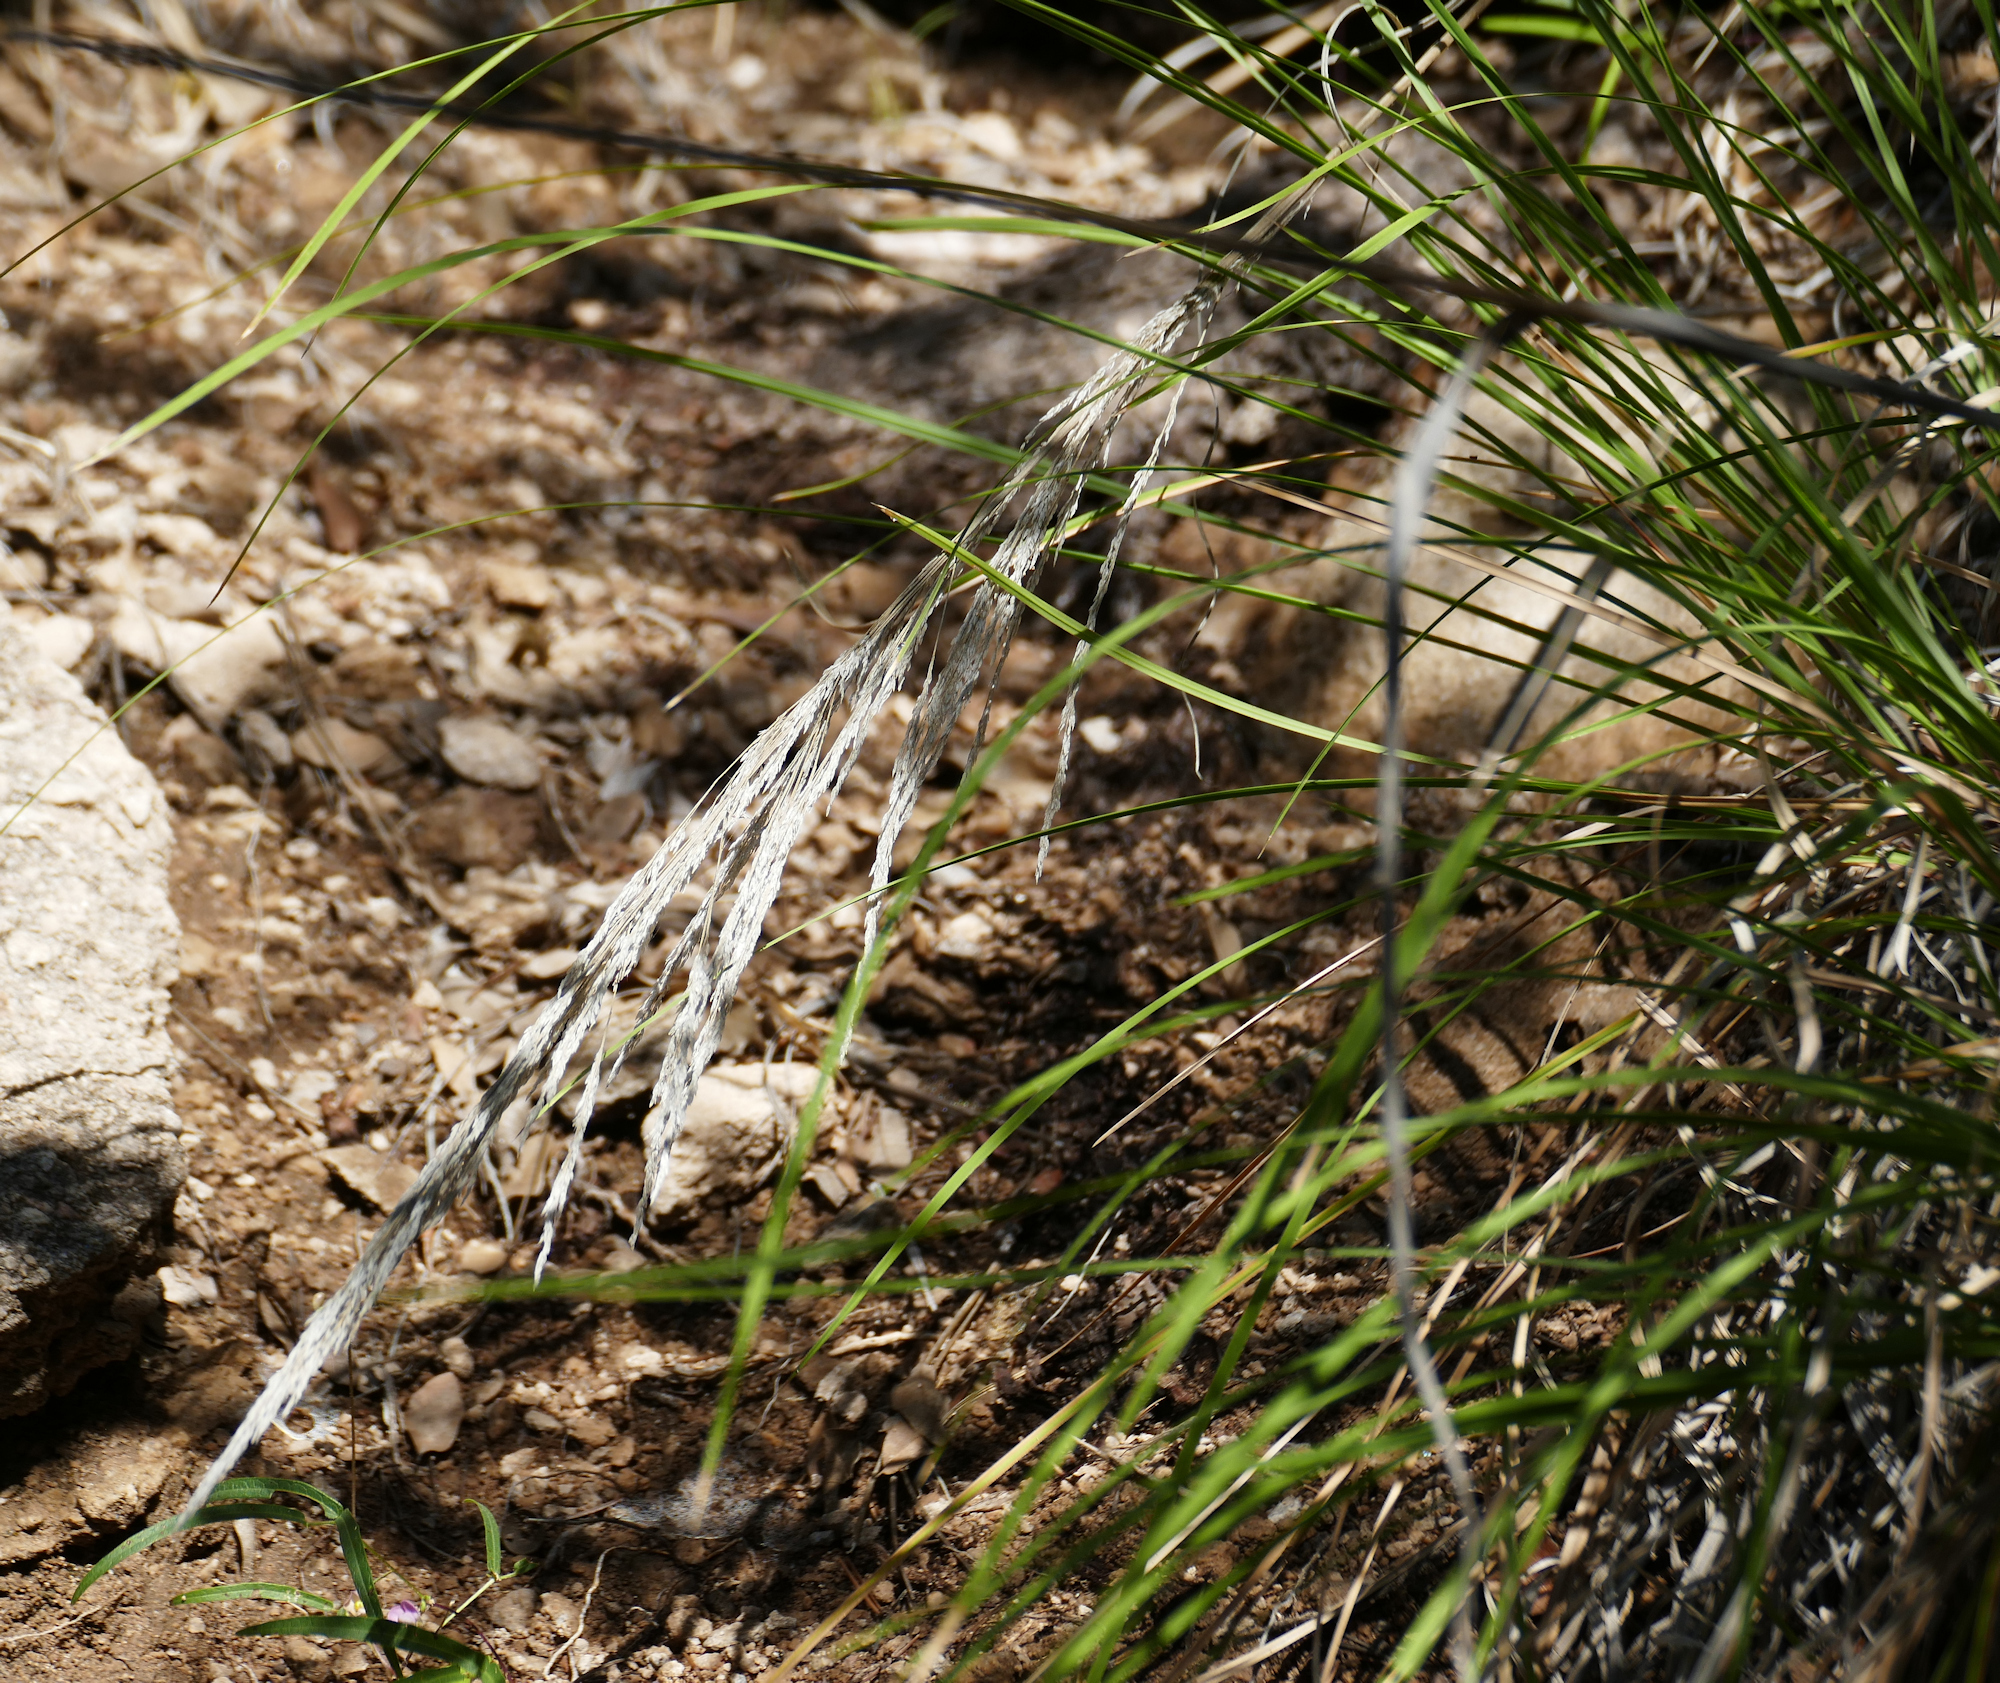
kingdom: Plantae
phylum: Tracheophyta
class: Liliopsida
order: Poales
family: Poaceae
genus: Muhlenbergia
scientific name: Muhlenbergia emersleyi
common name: Bull grass
